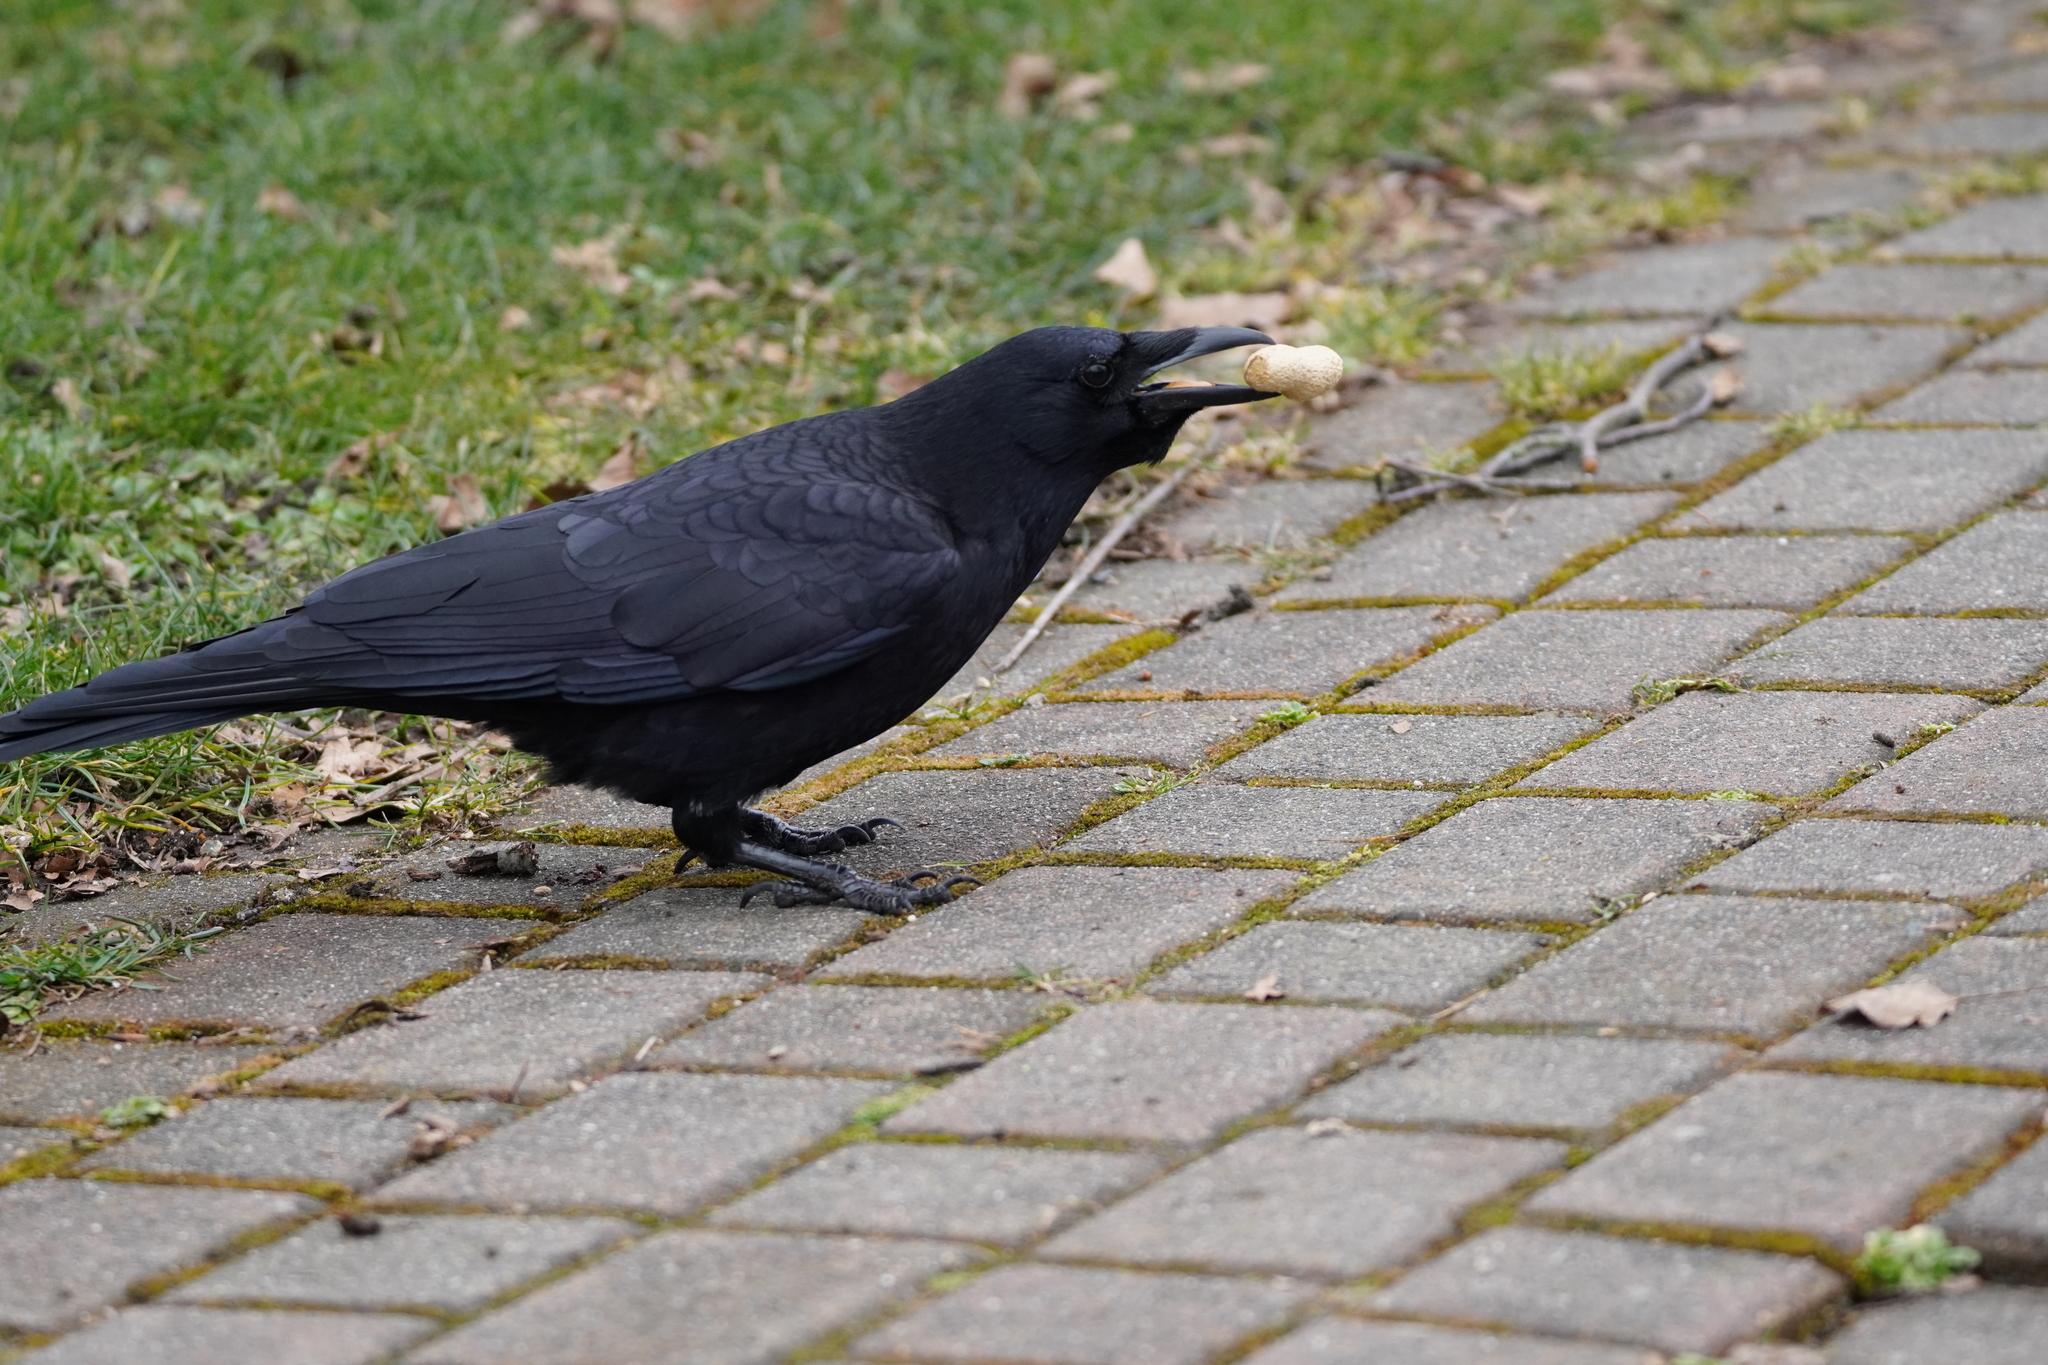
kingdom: Animalia
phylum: Chordata
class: Aves
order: Passeriformes
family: Corvidae
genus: Corvus
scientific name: Corvus brachyrhynchos
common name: American crow
